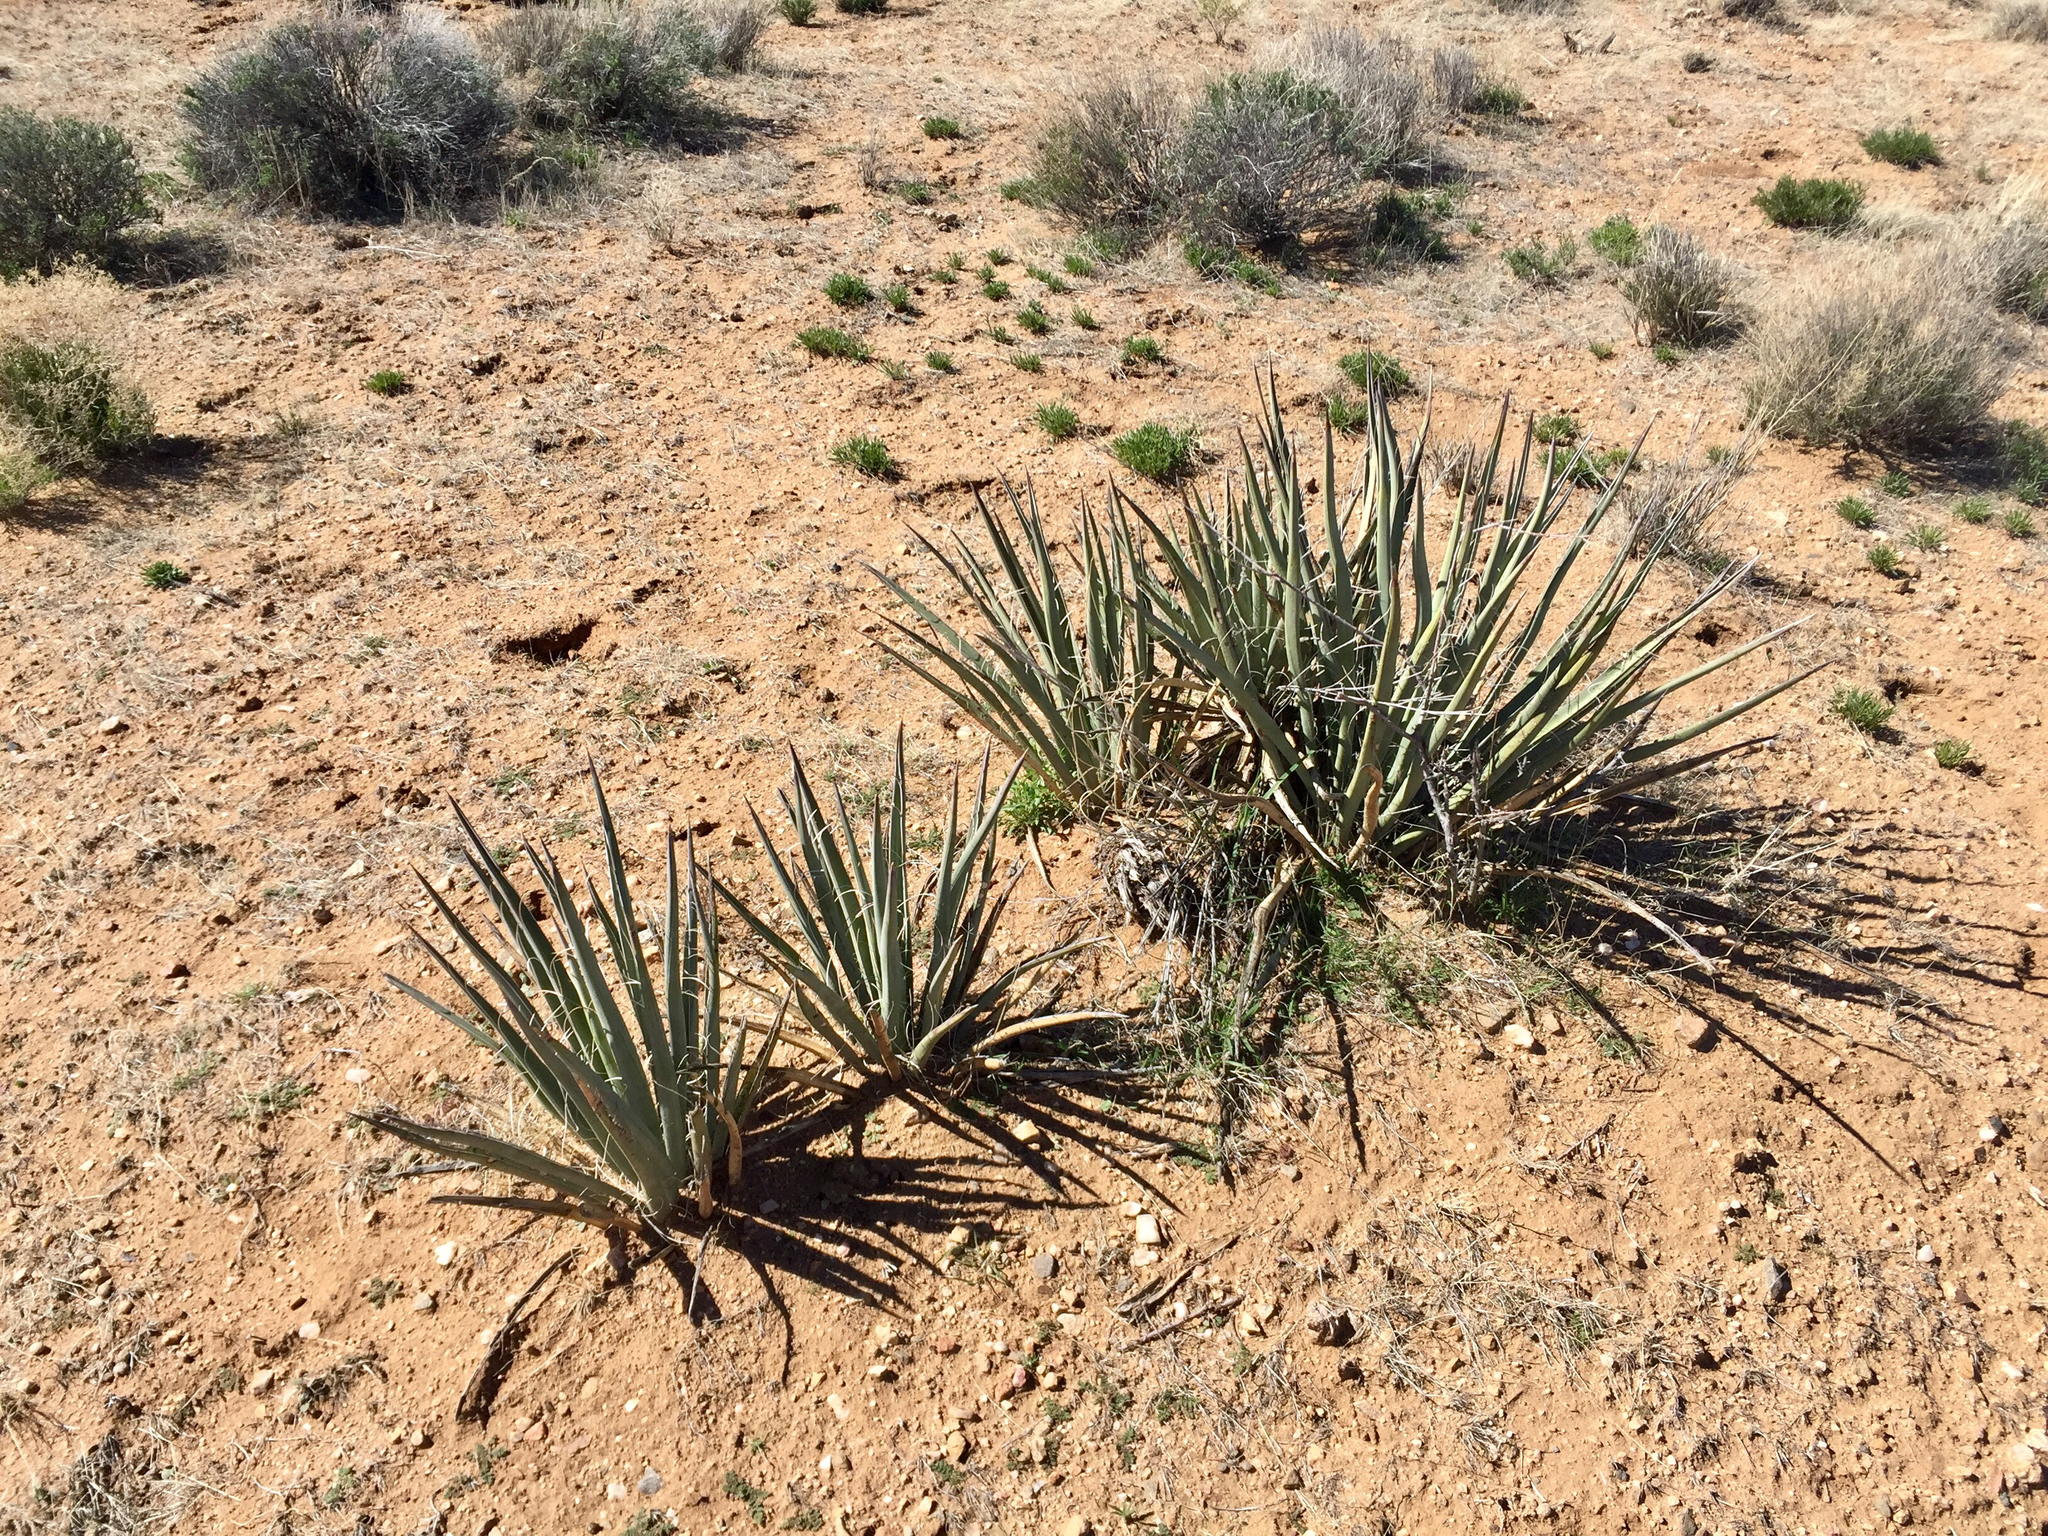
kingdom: Plantae
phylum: Tracheophyta
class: Liliopsida
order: Asparagales
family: Asparagaceae
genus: Yucca
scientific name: Yucca baccata
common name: Banana yucca
